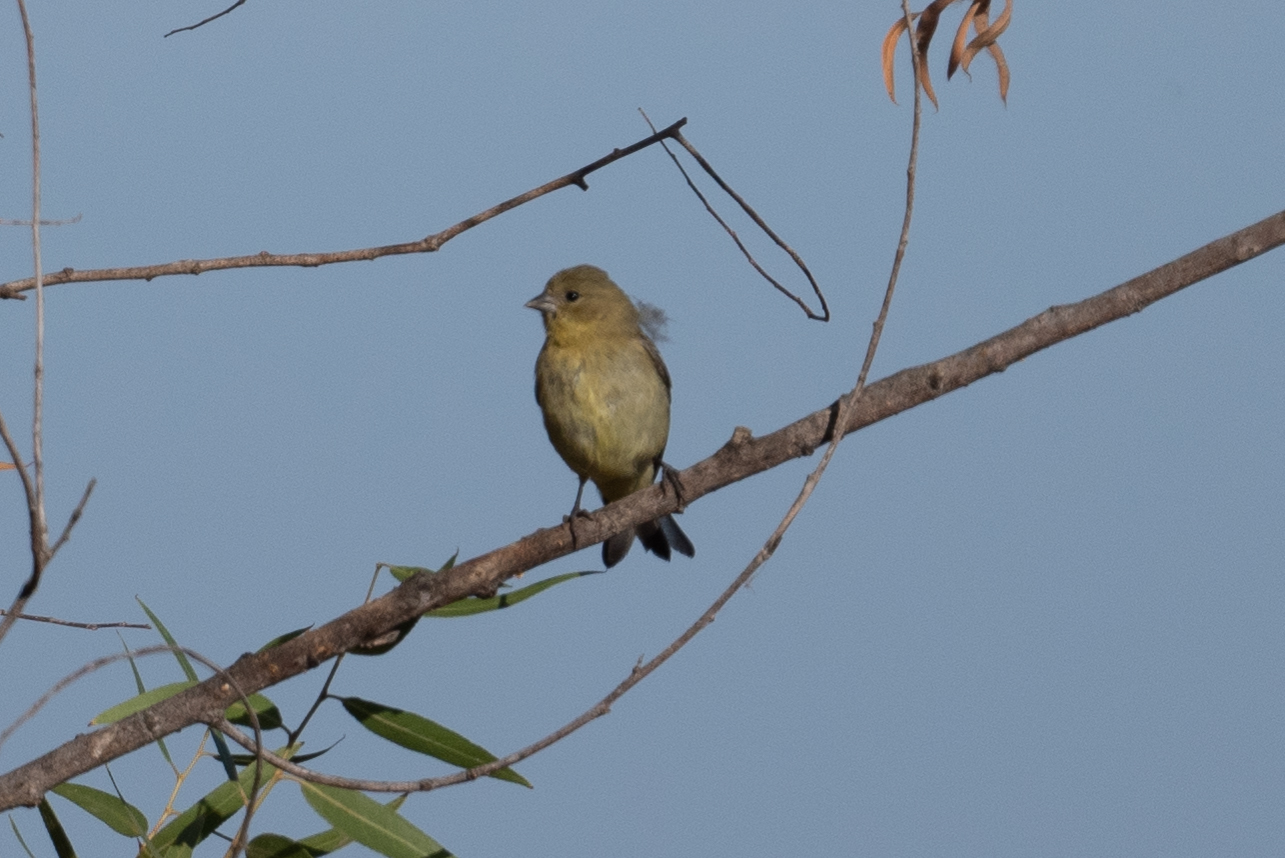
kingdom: Animalia
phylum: Chordata
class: Aves
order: Passeriformes
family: Fringillidae
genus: Spinus
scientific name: Spinus psaltria
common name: Lesser goldfinch
